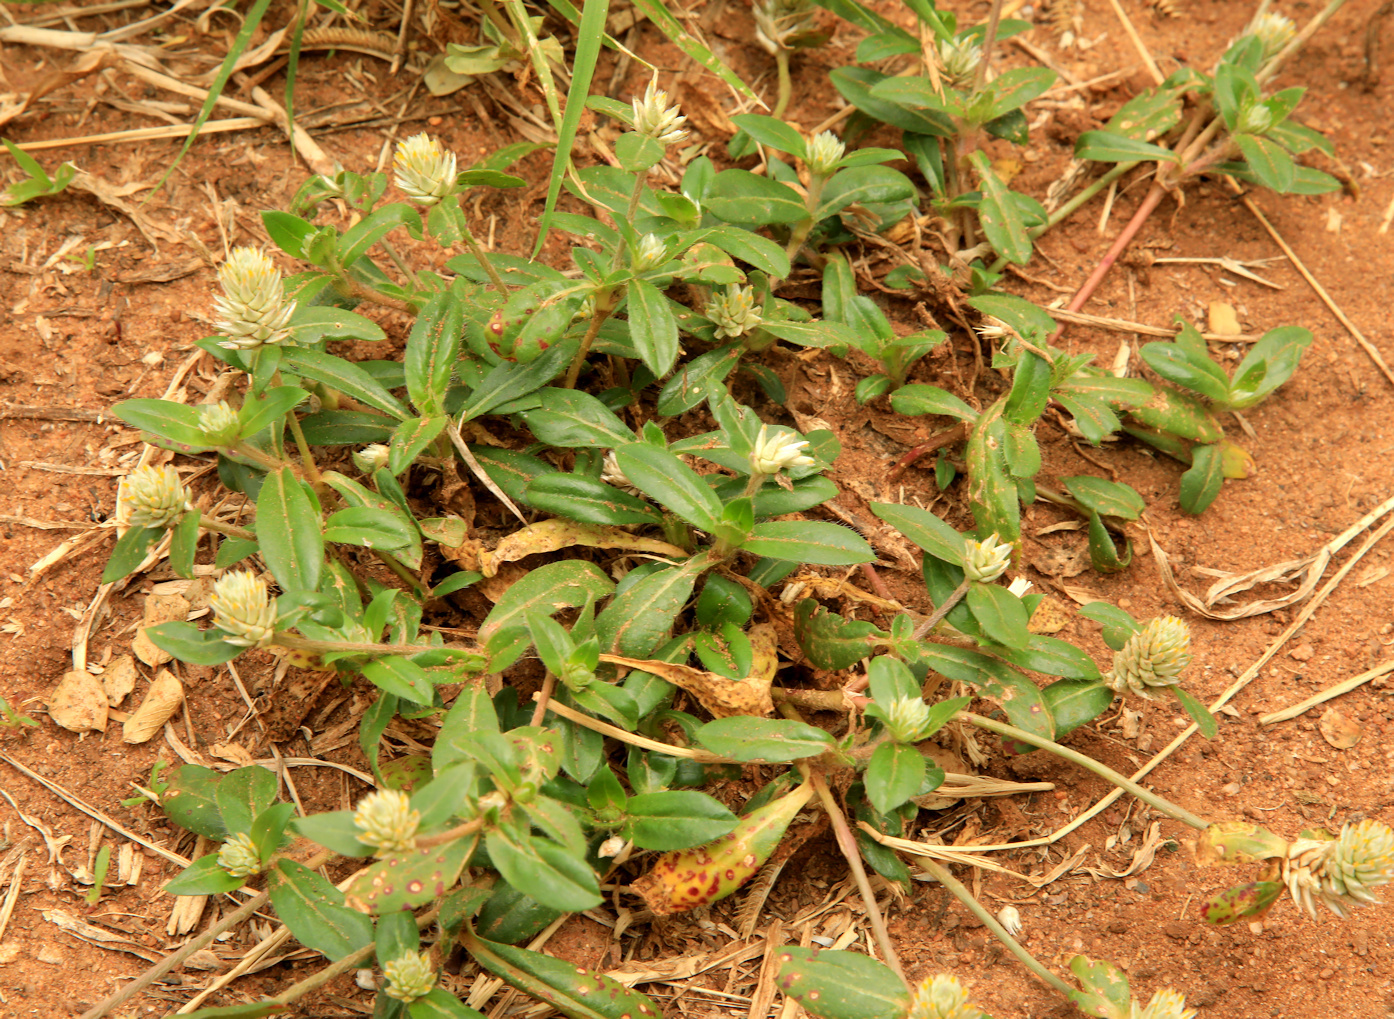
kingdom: Plantae
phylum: Tracheophyta
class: Magnoliopsida
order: Caryophyllales
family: Amaranthaceae
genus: Gomphrena
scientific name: Gomphrena celosioides
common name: Gomphrena-weed
